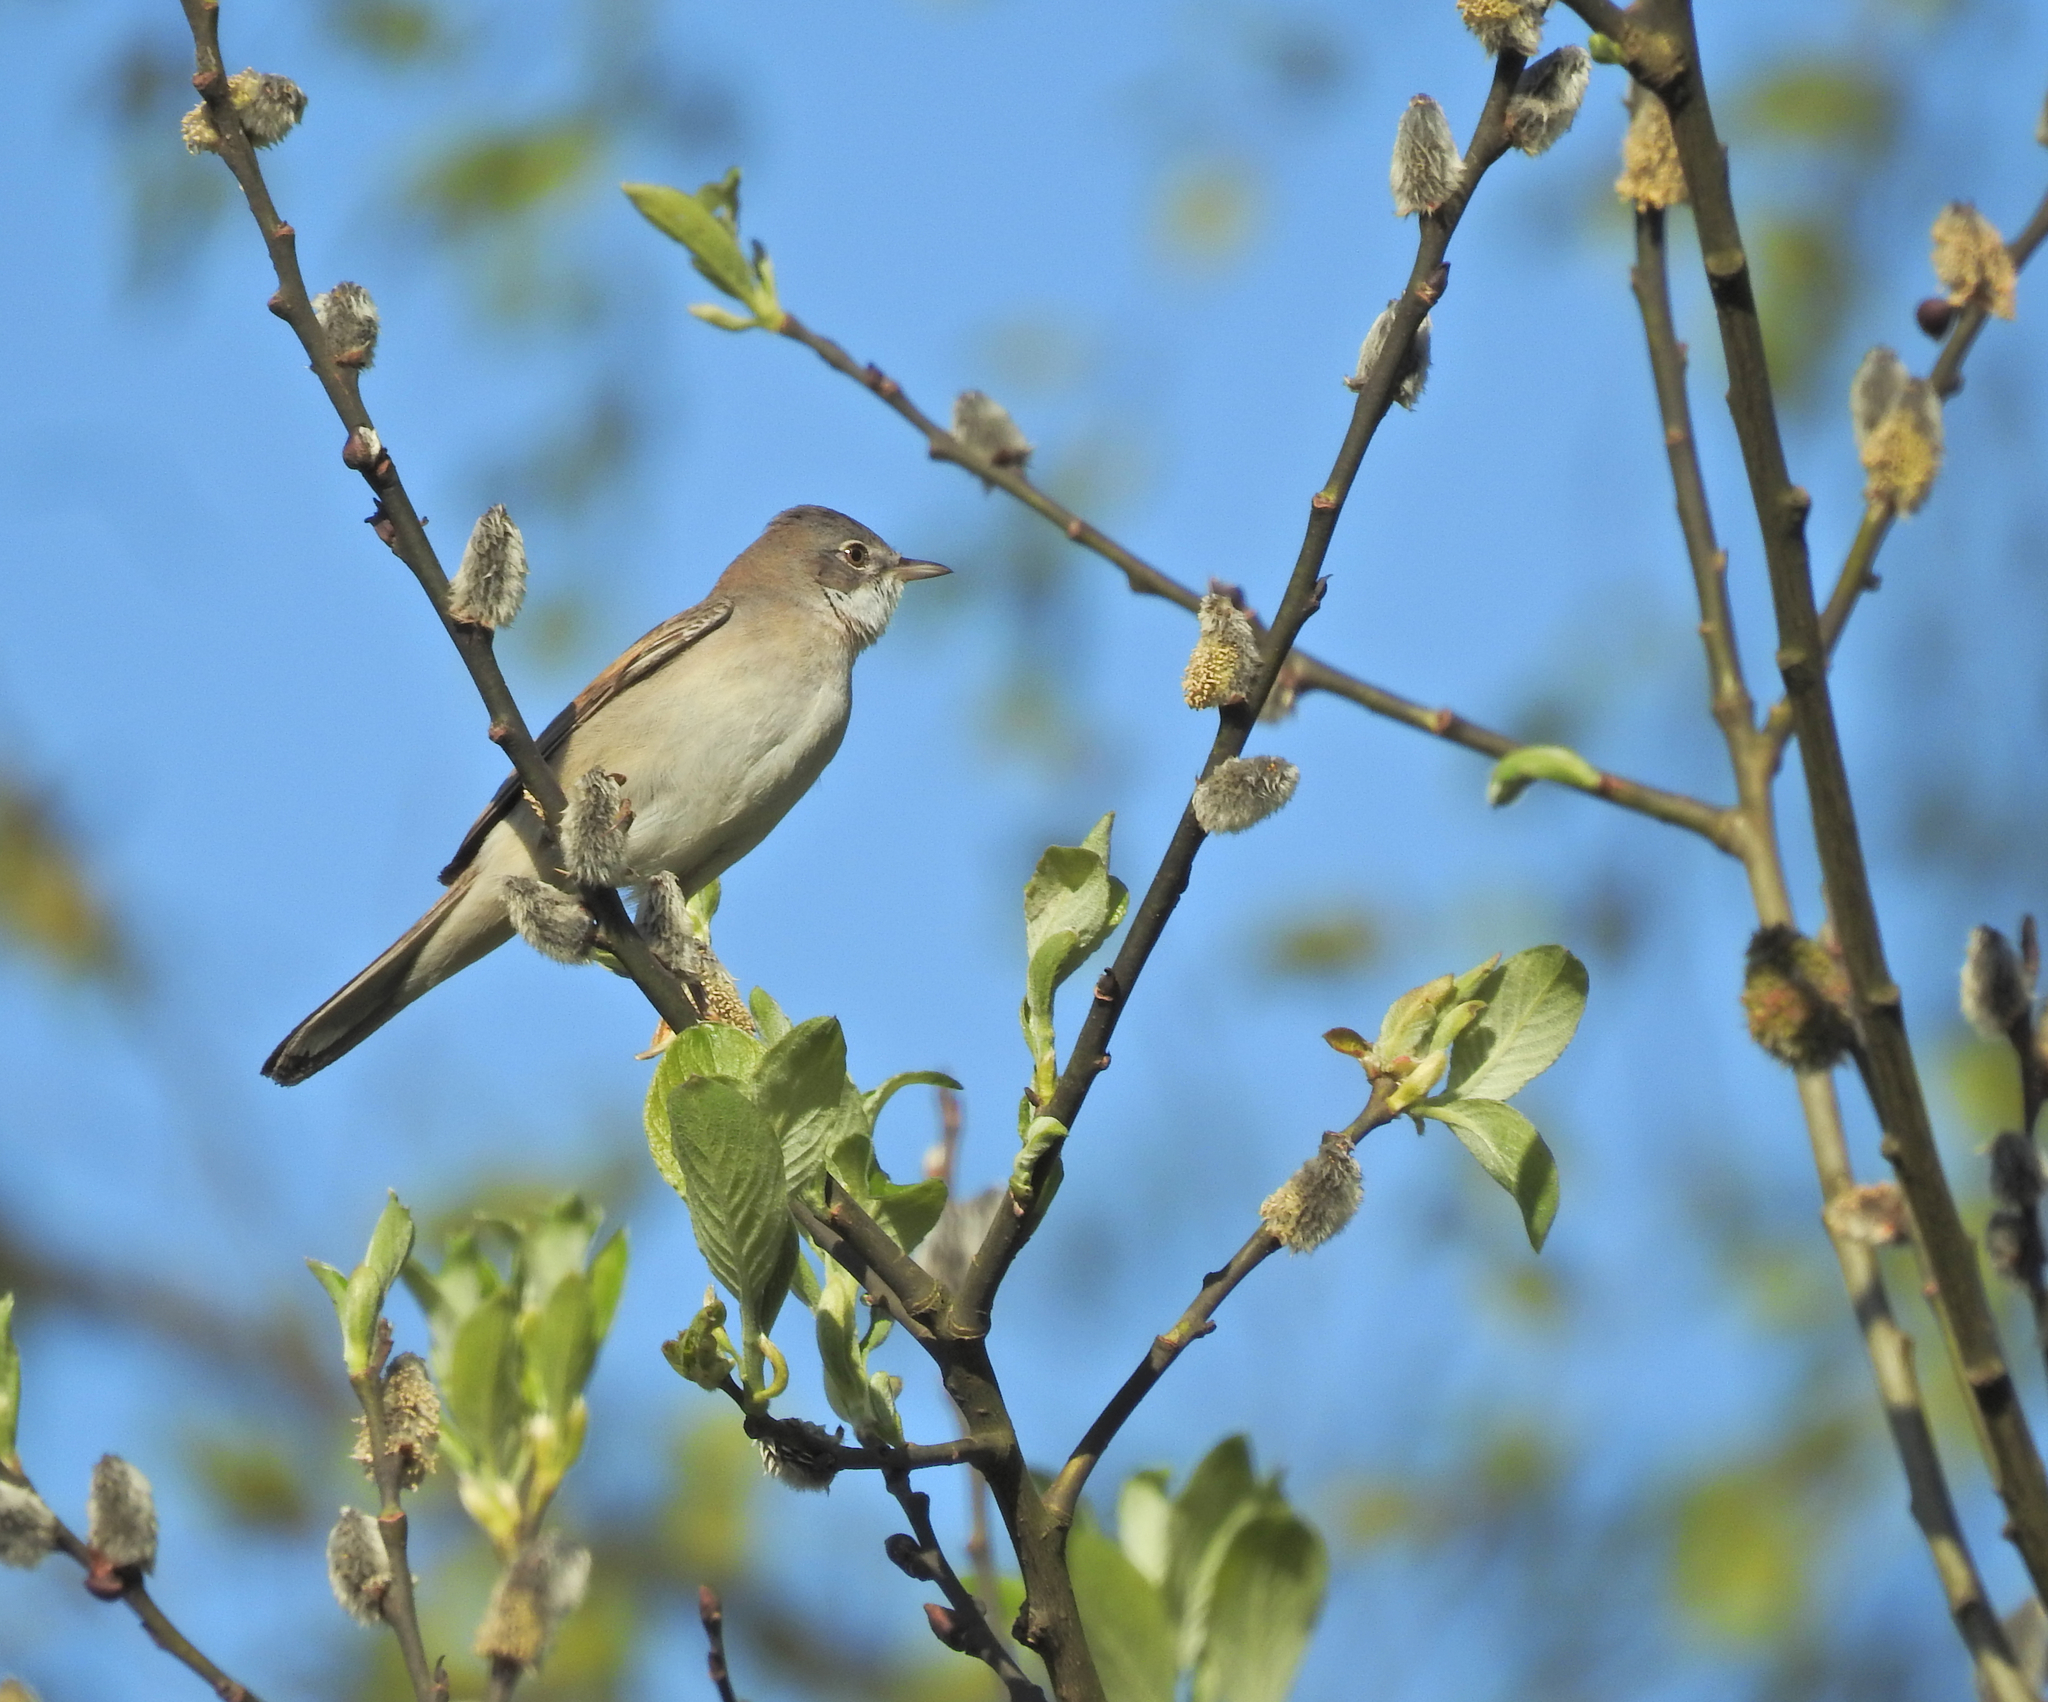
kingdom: Animalia
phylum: Chordata
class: Aves
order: Passeriformes
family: Sylviidae
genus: Sylvia
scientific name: Sylvia communis
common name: Common whitethroat
